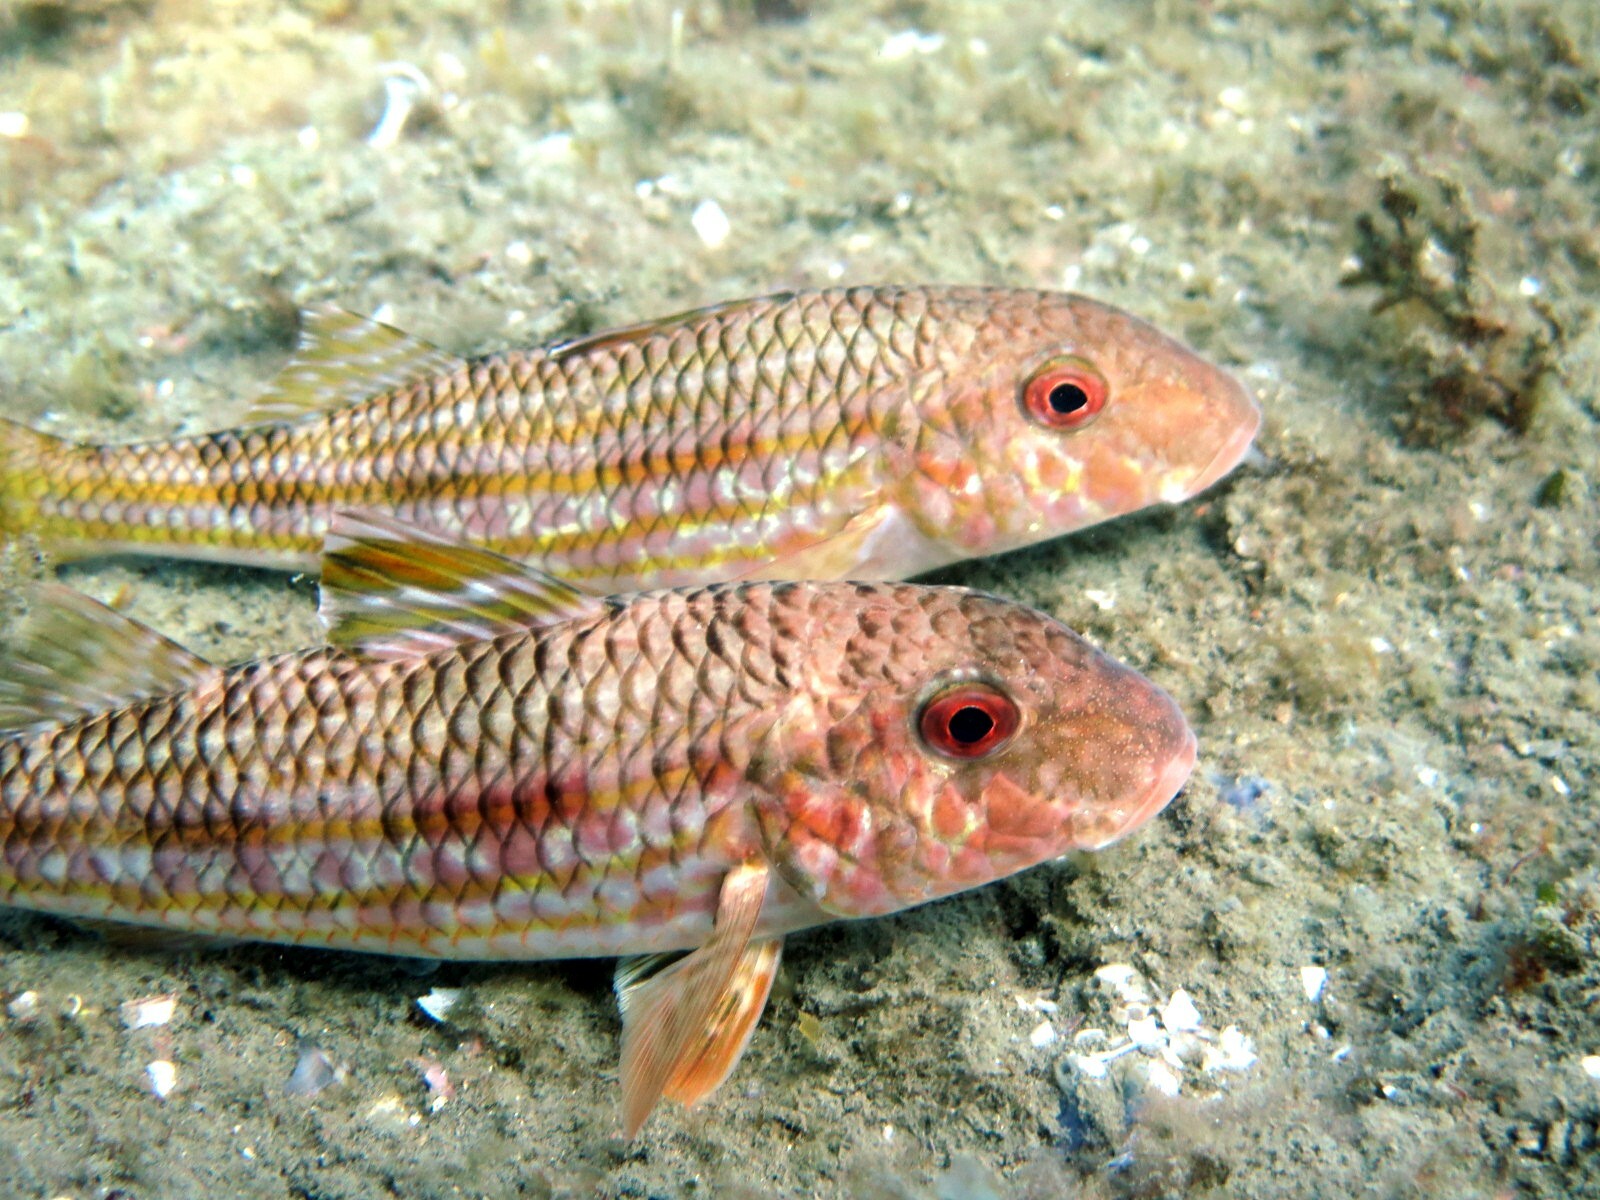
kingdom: Animalia
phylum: Chordata
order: Perciformes
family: Mullidae
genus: Mullus
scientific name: Mullus surmuletus
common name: Red mullet
